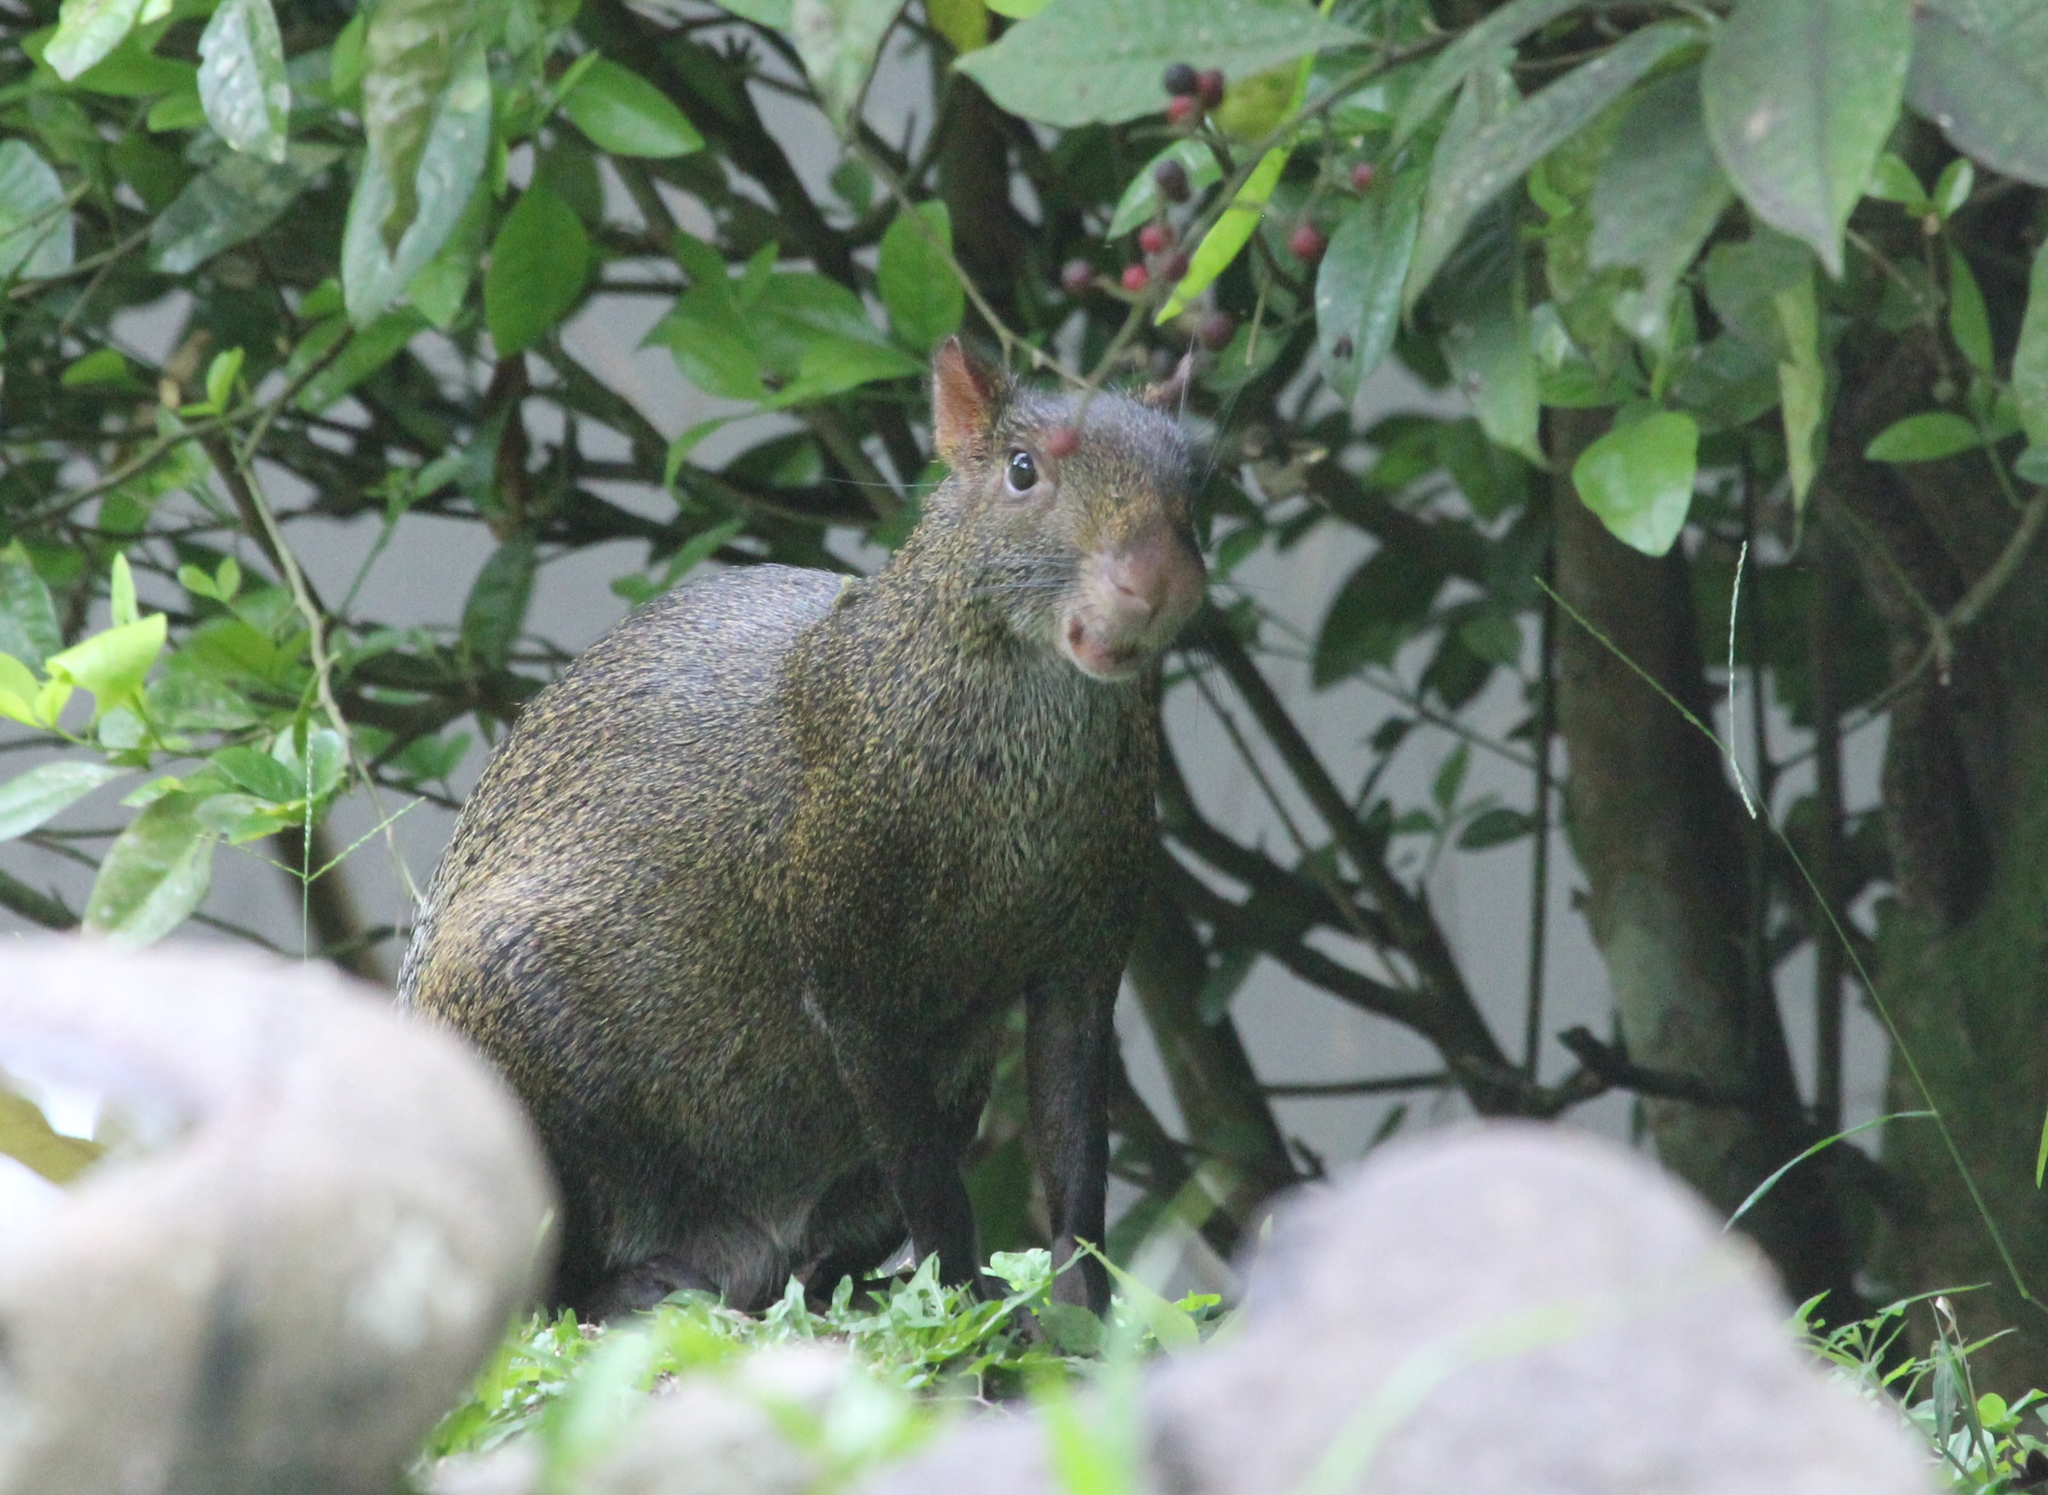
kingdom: Animalia
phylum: Chordata
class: Mammalia
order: Rodentia
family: Dasyproctidae
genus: Dasyprocta
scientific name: Dasyprocta punctata
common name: Central american agouti
